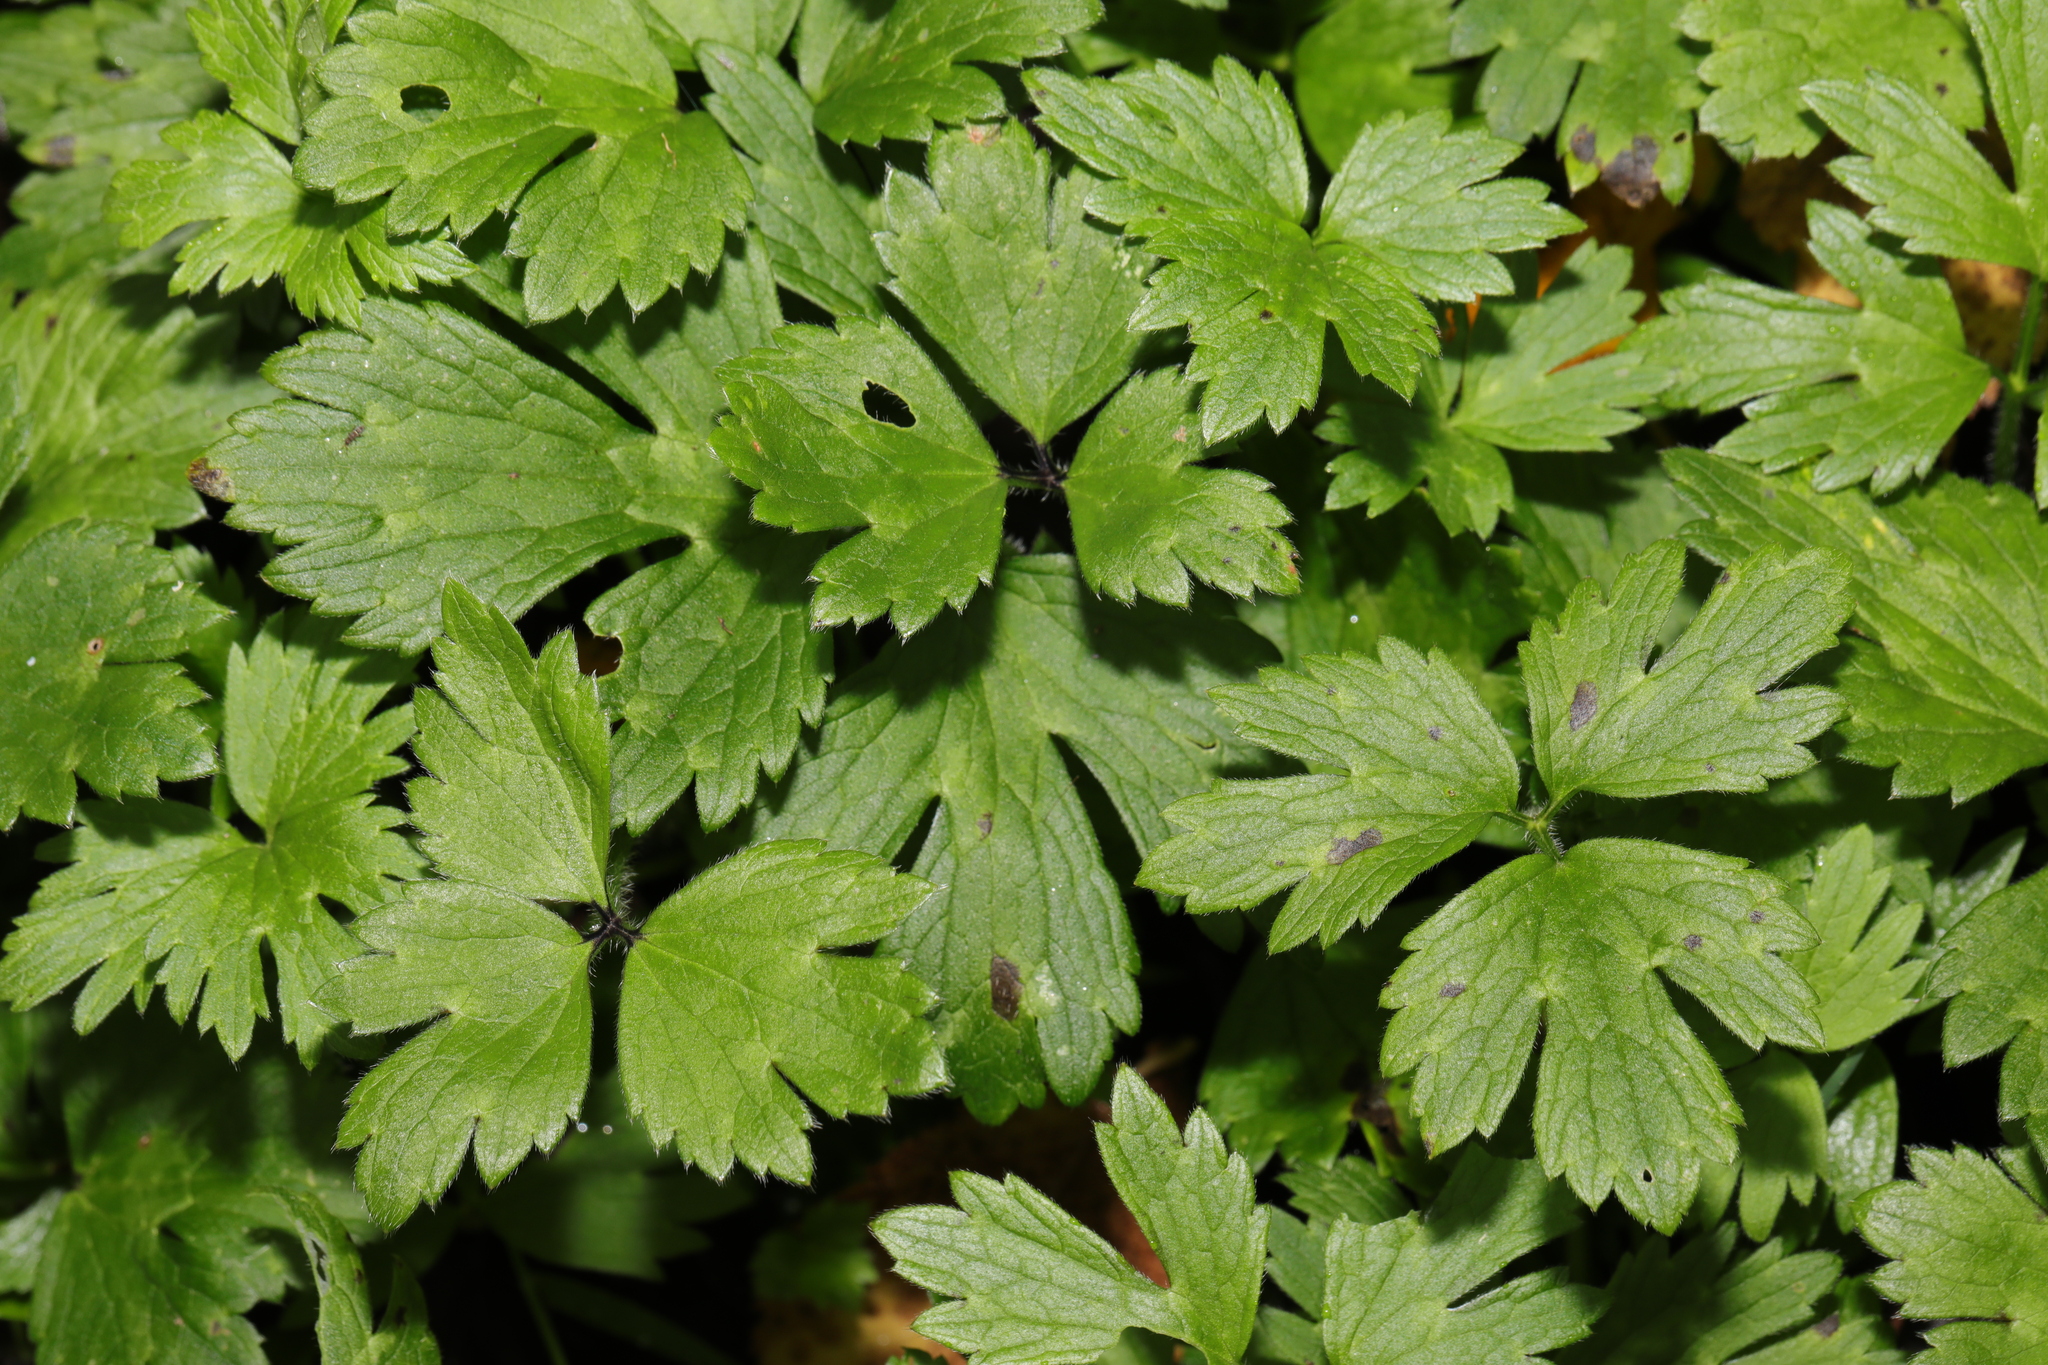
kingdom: Plantae
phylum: Tracheophyta
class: Magnoliopsida
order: Ranunculales
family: Ranunculaceae
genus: Ranunculus
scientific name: Ranunculus repens
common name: Creeping buttercup
